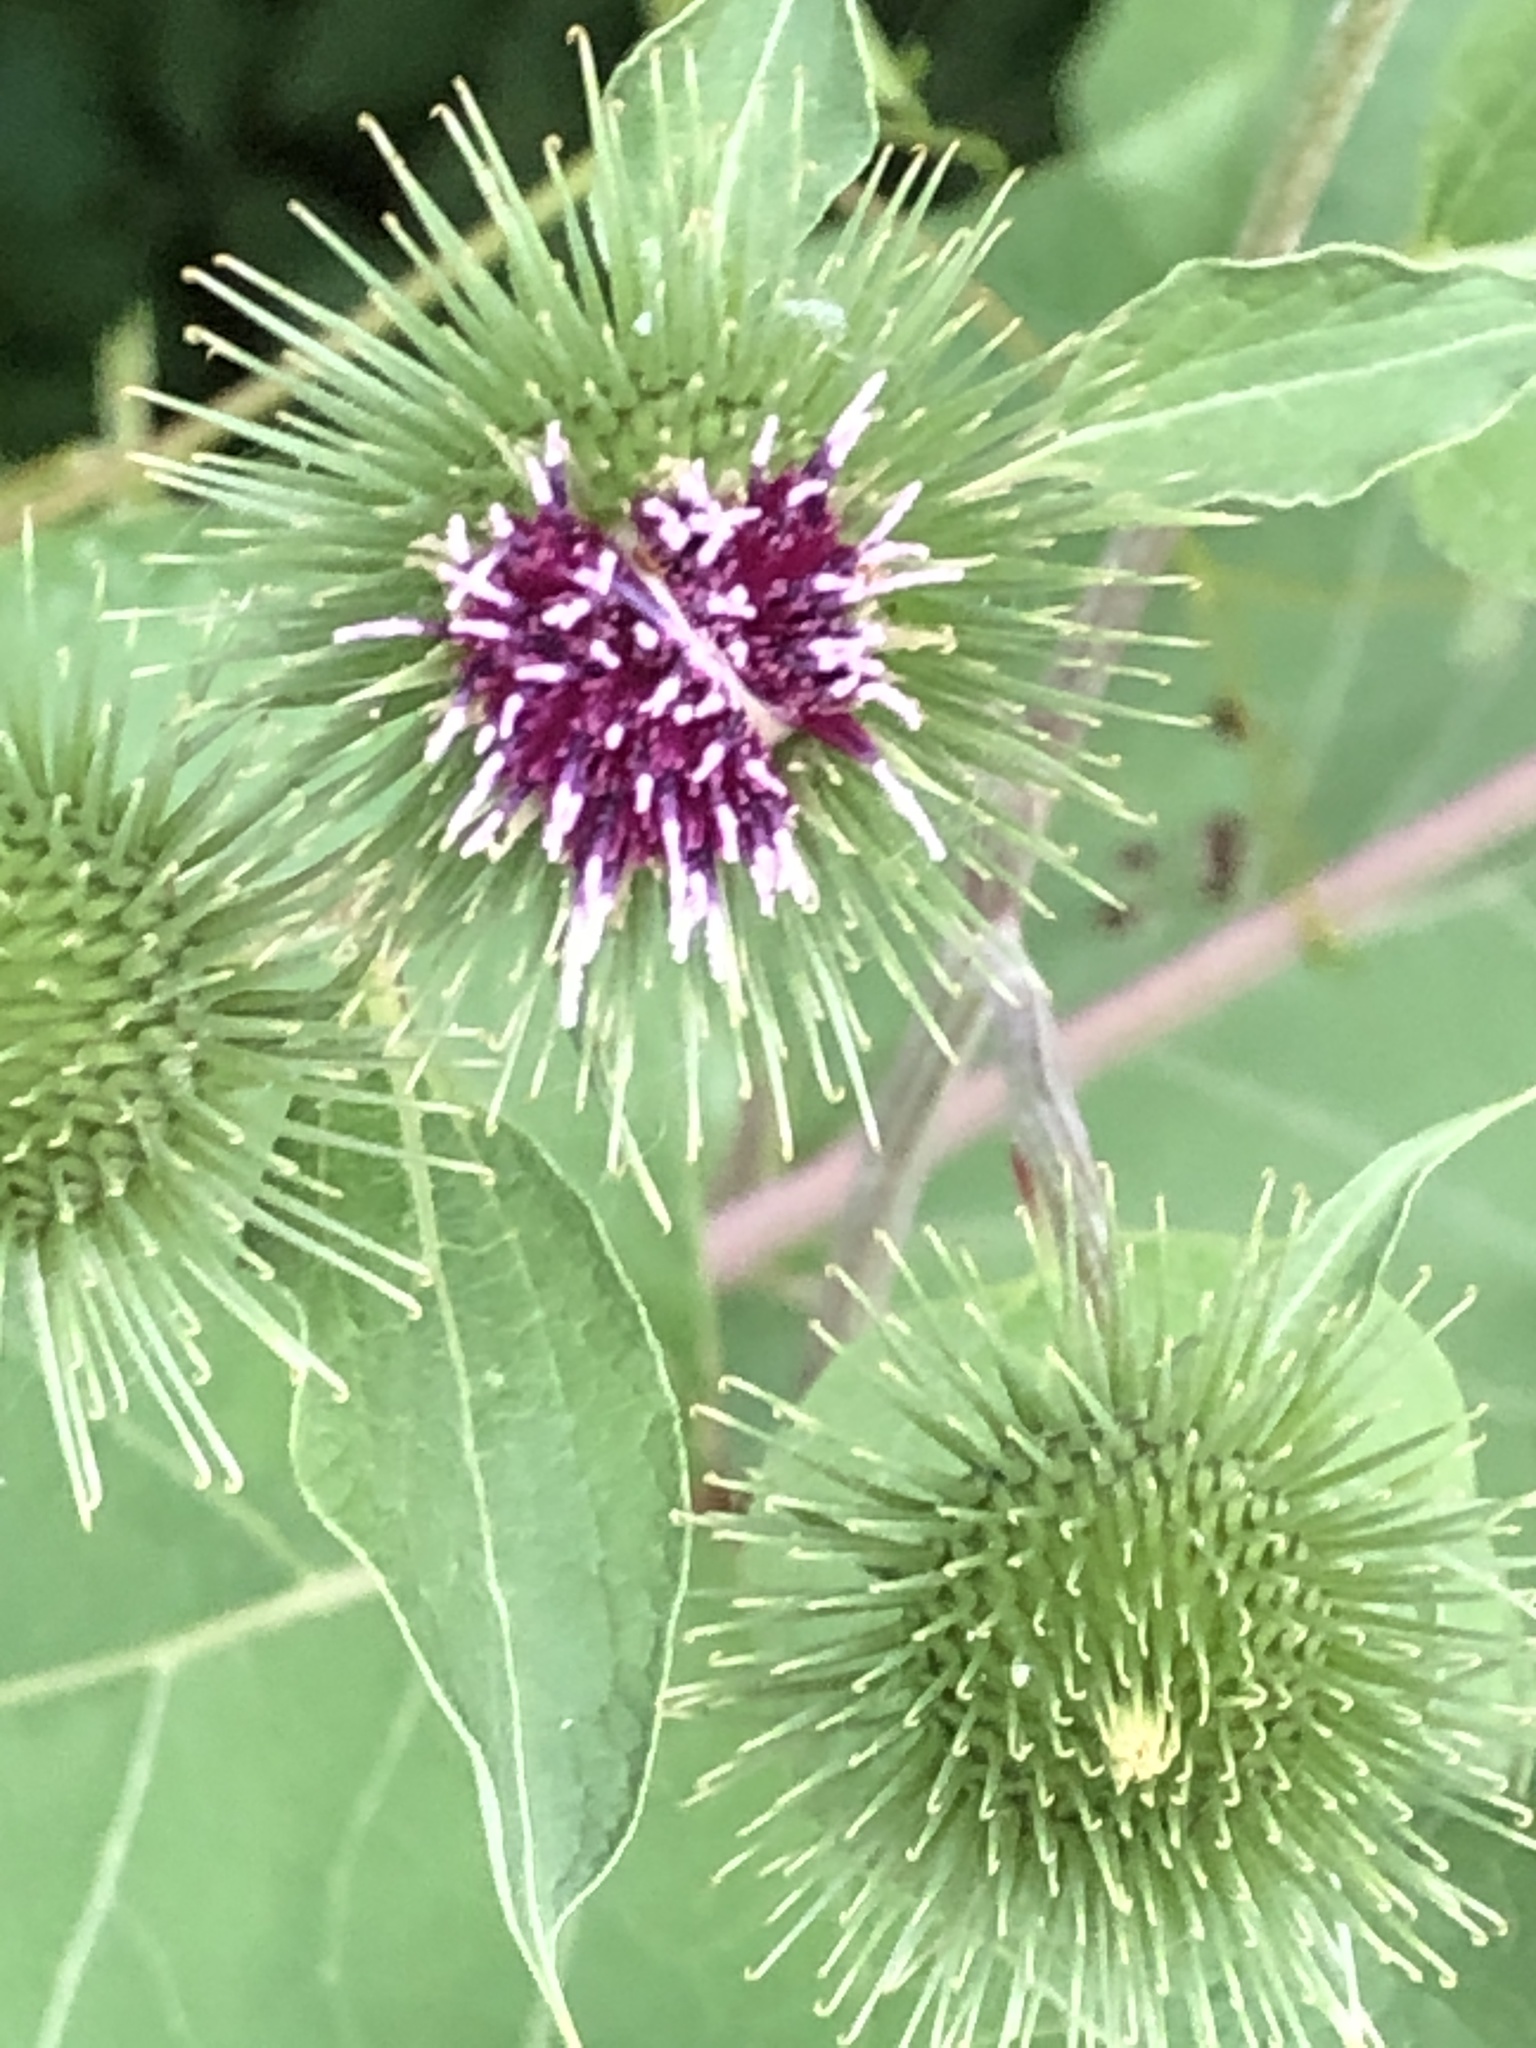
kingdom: Plantae
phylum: Tracheophyta
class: Magnoliopsida
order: Asterales
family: Asteraceae
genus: Arctium
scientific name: Arctium lappa
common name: Greater burdock
